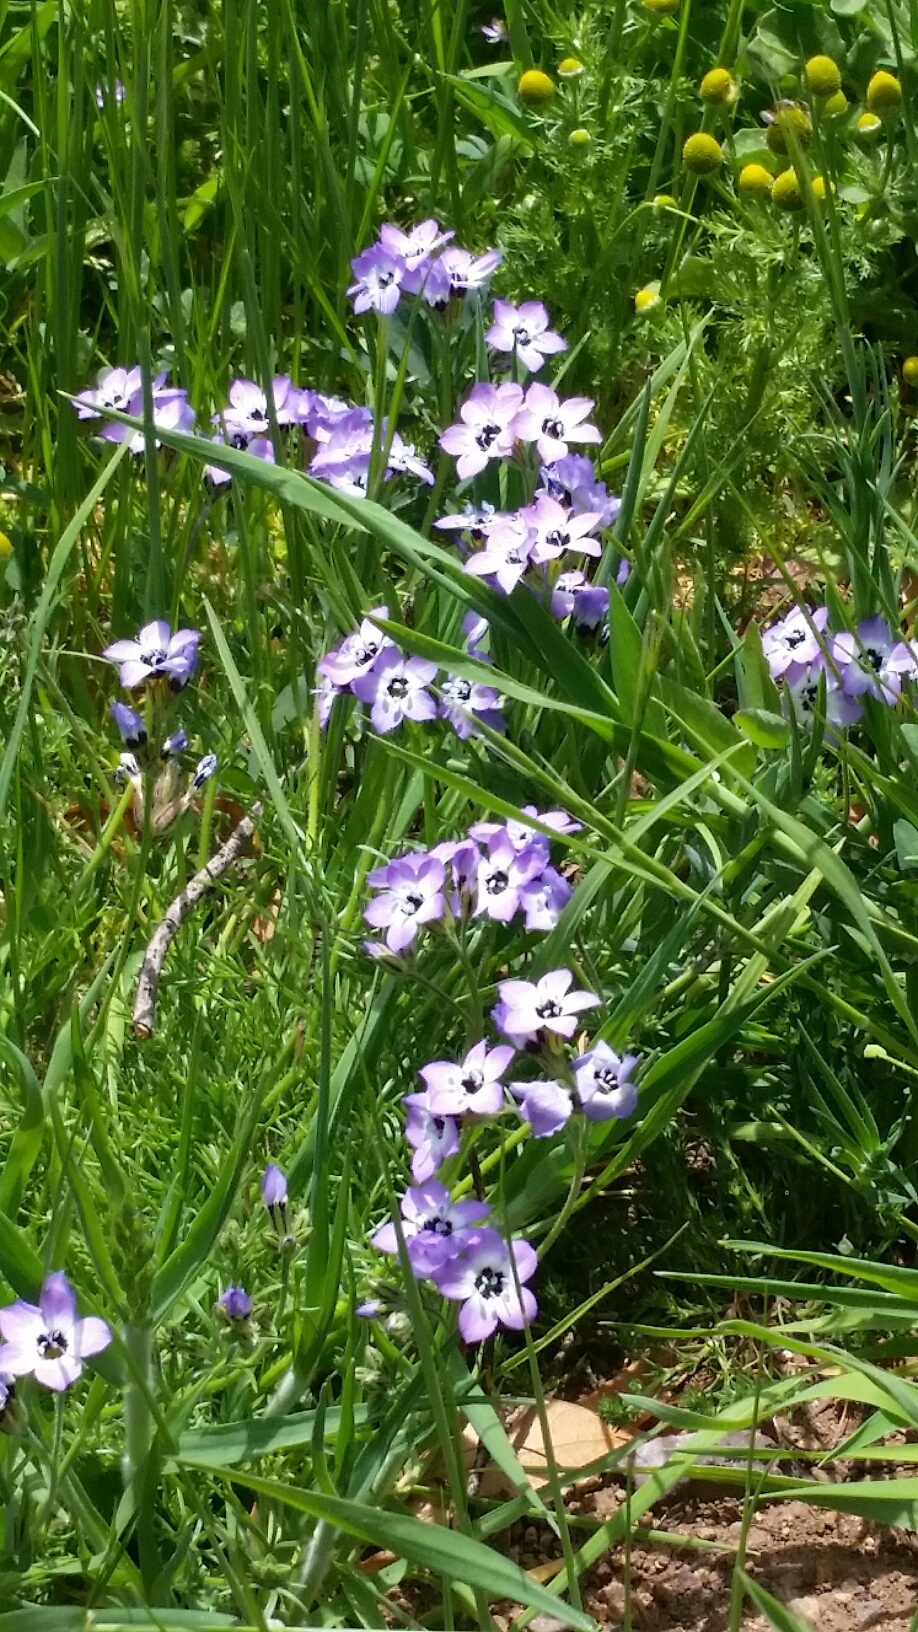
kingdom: Plantae
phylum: Tracheophyta
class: Magnoliopsida
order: Ericales
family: Polemoniaceae
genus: Gilia
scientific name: Gilia tricolor
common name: Bird's-eyes
